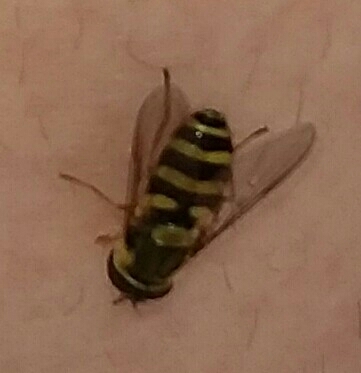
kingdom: Animalia
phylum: Arthropoda
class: Insecta
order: Diptera
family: Syrphidae
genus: Syrphus
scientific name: Syrphus
